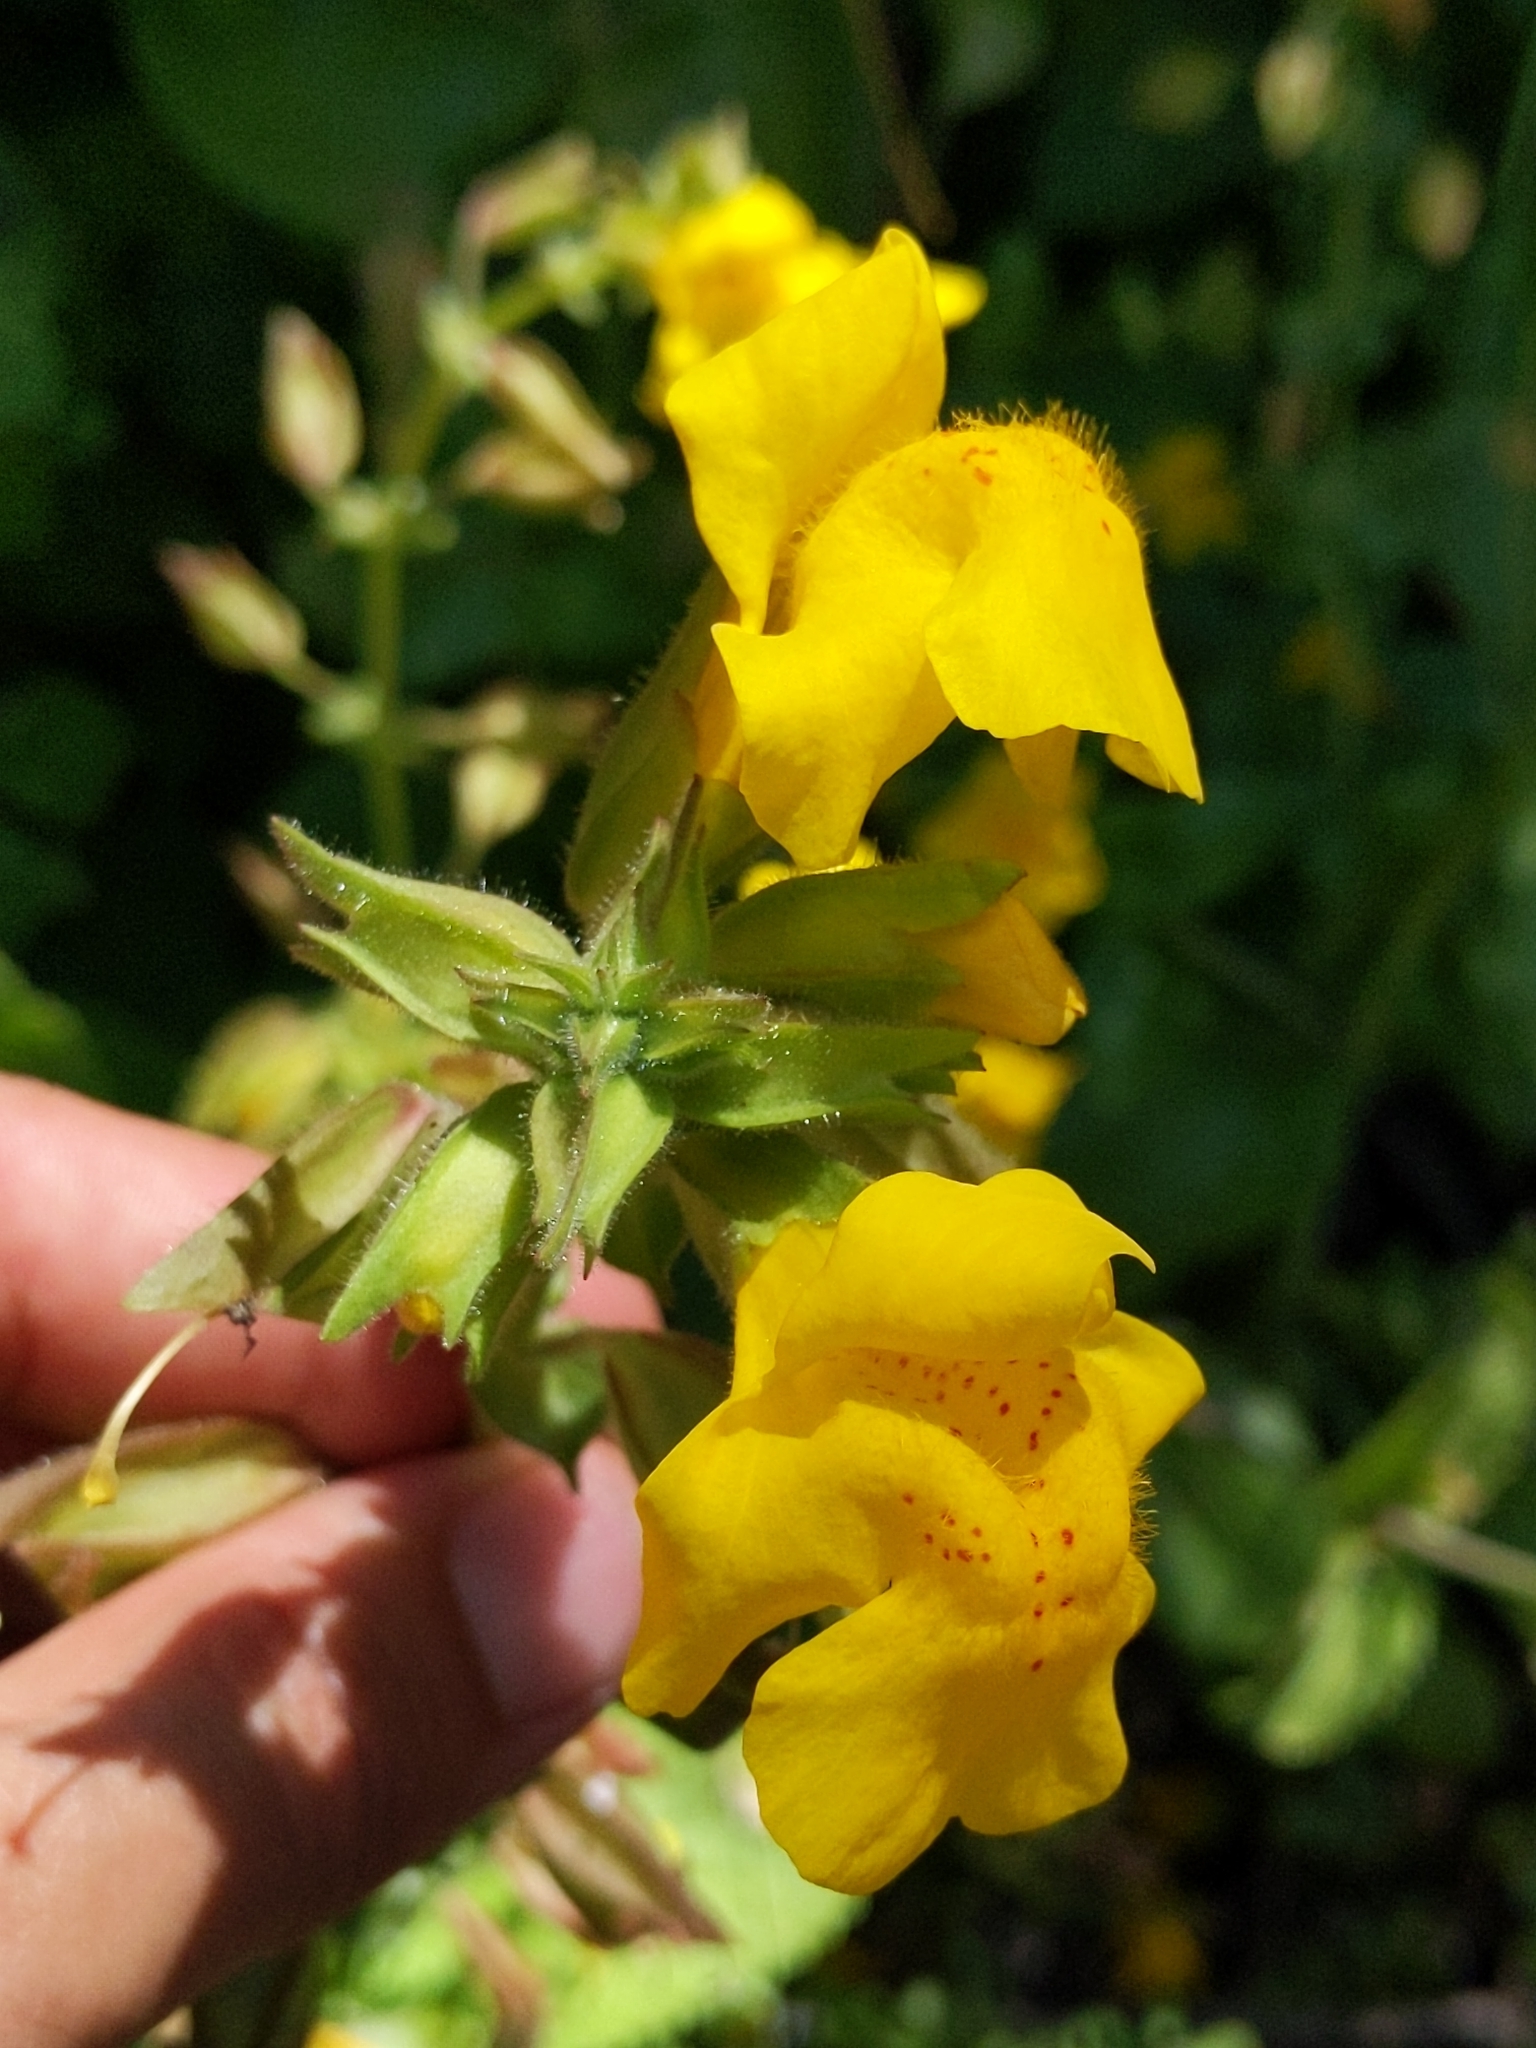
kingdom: Plantae
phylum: Tracheophyta
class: Magnoliopsida
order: Lamiales
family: Phrymaceae
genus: Erythranthe
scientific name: Erythranthe guttata
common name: Monkeyflower
